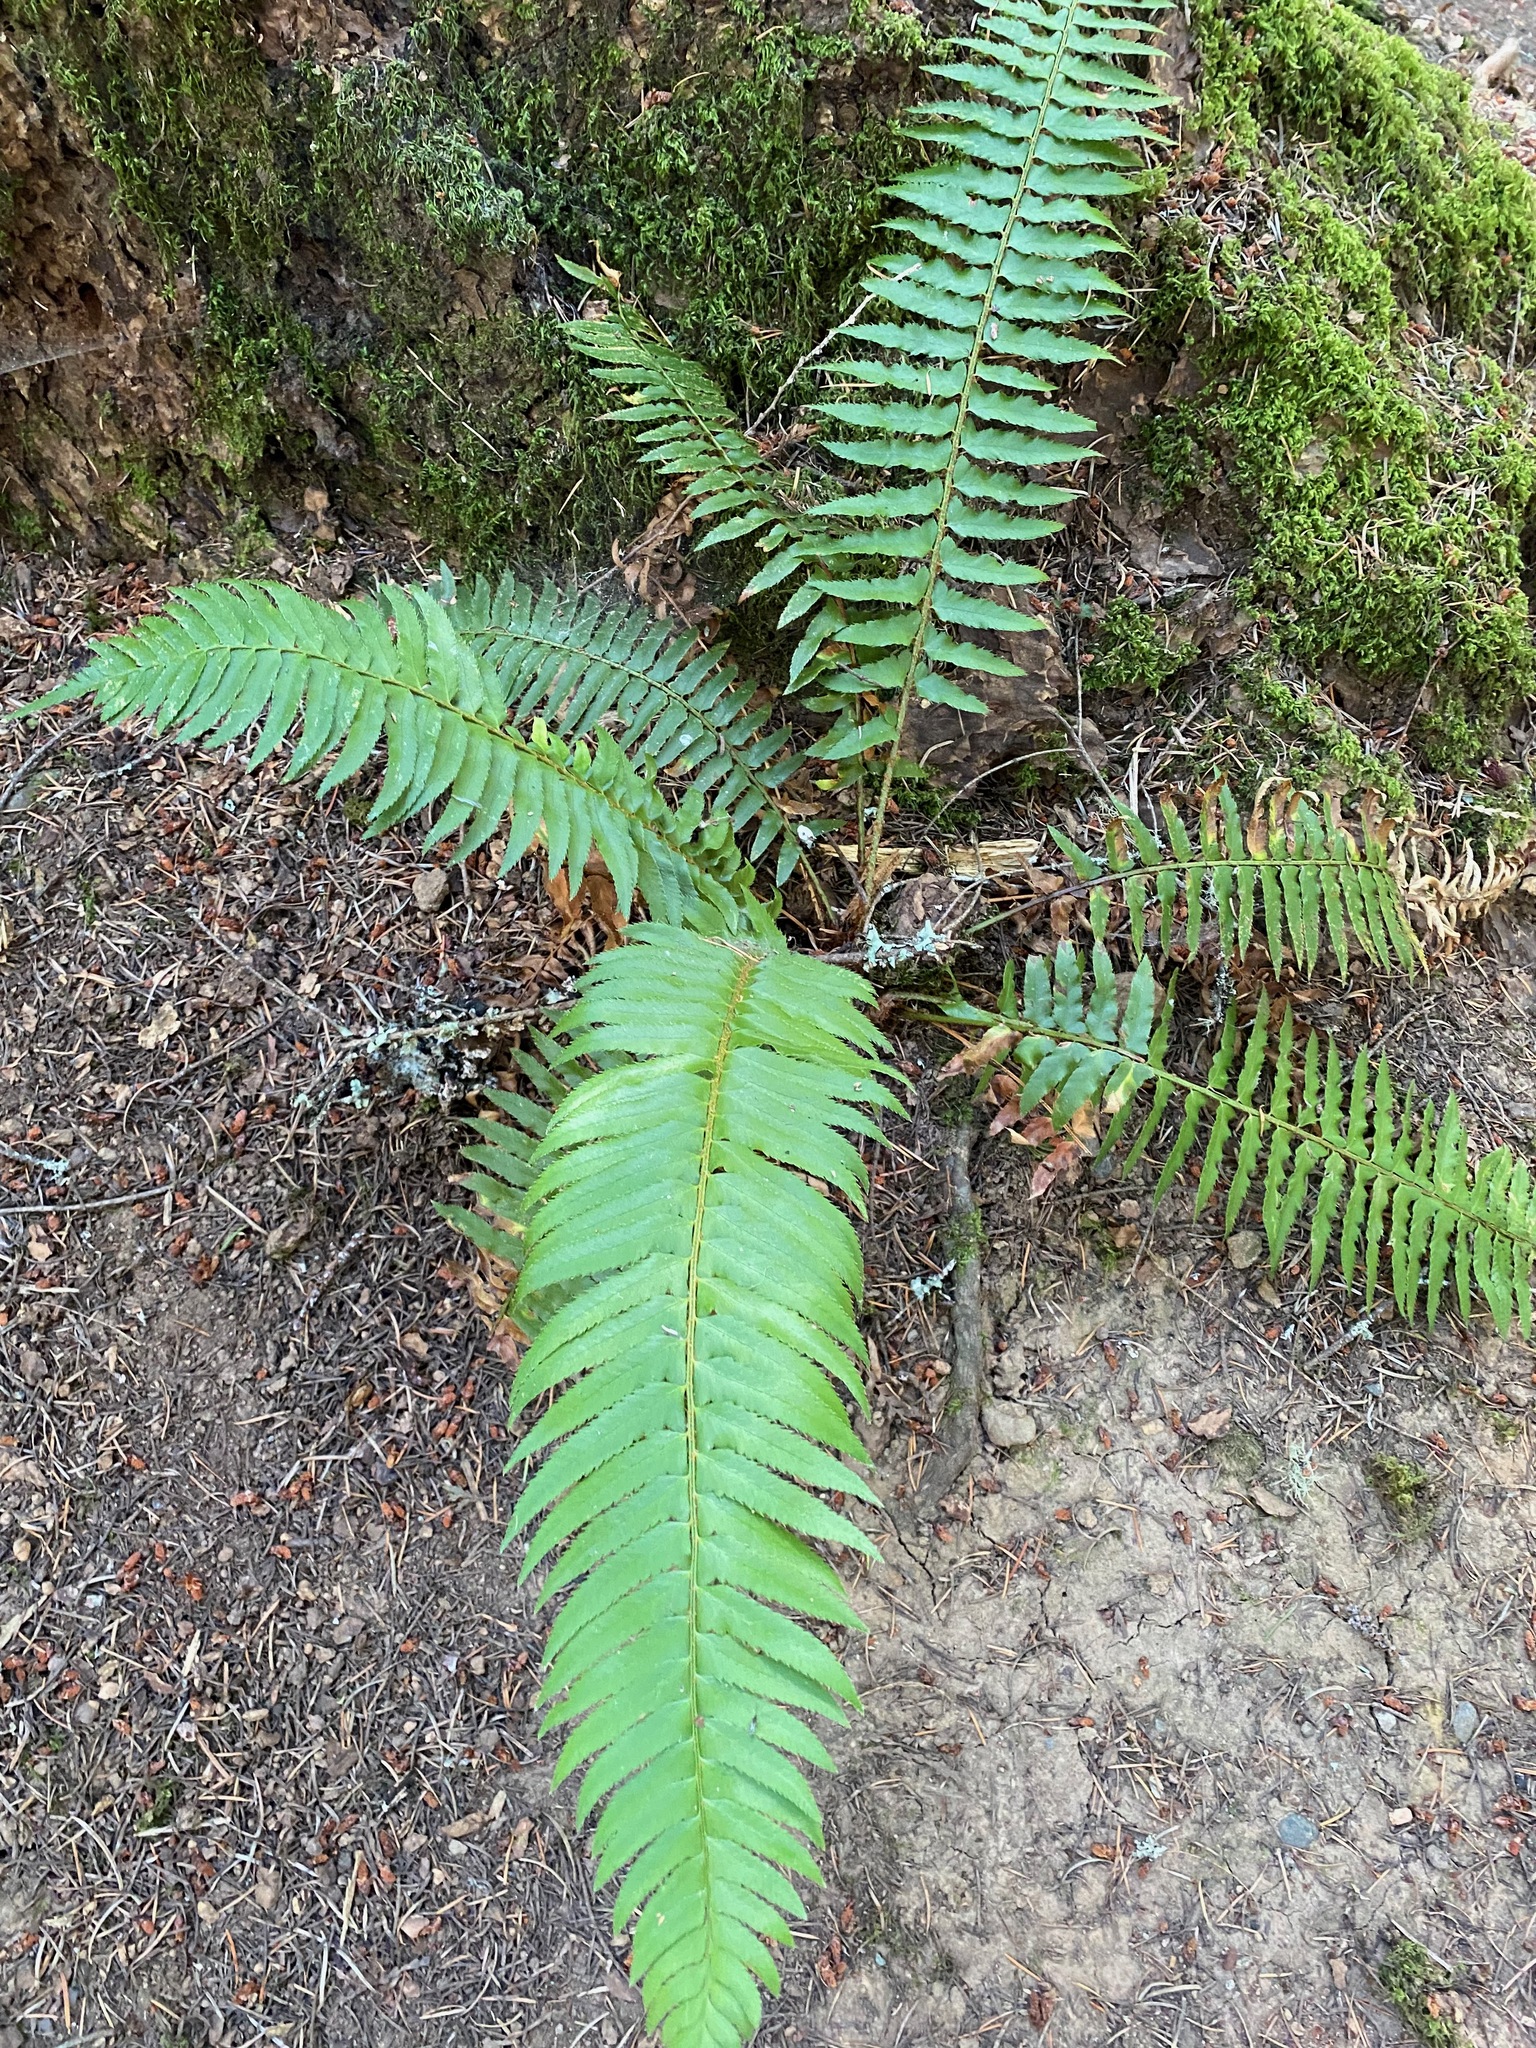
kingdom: Plantae
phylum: Tracheophyta
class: Polypodiopsida
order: Polypodiales
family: Dryopteridaceae
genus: Polystichum
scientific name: Polystichum munitum
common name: Western sword-fern
